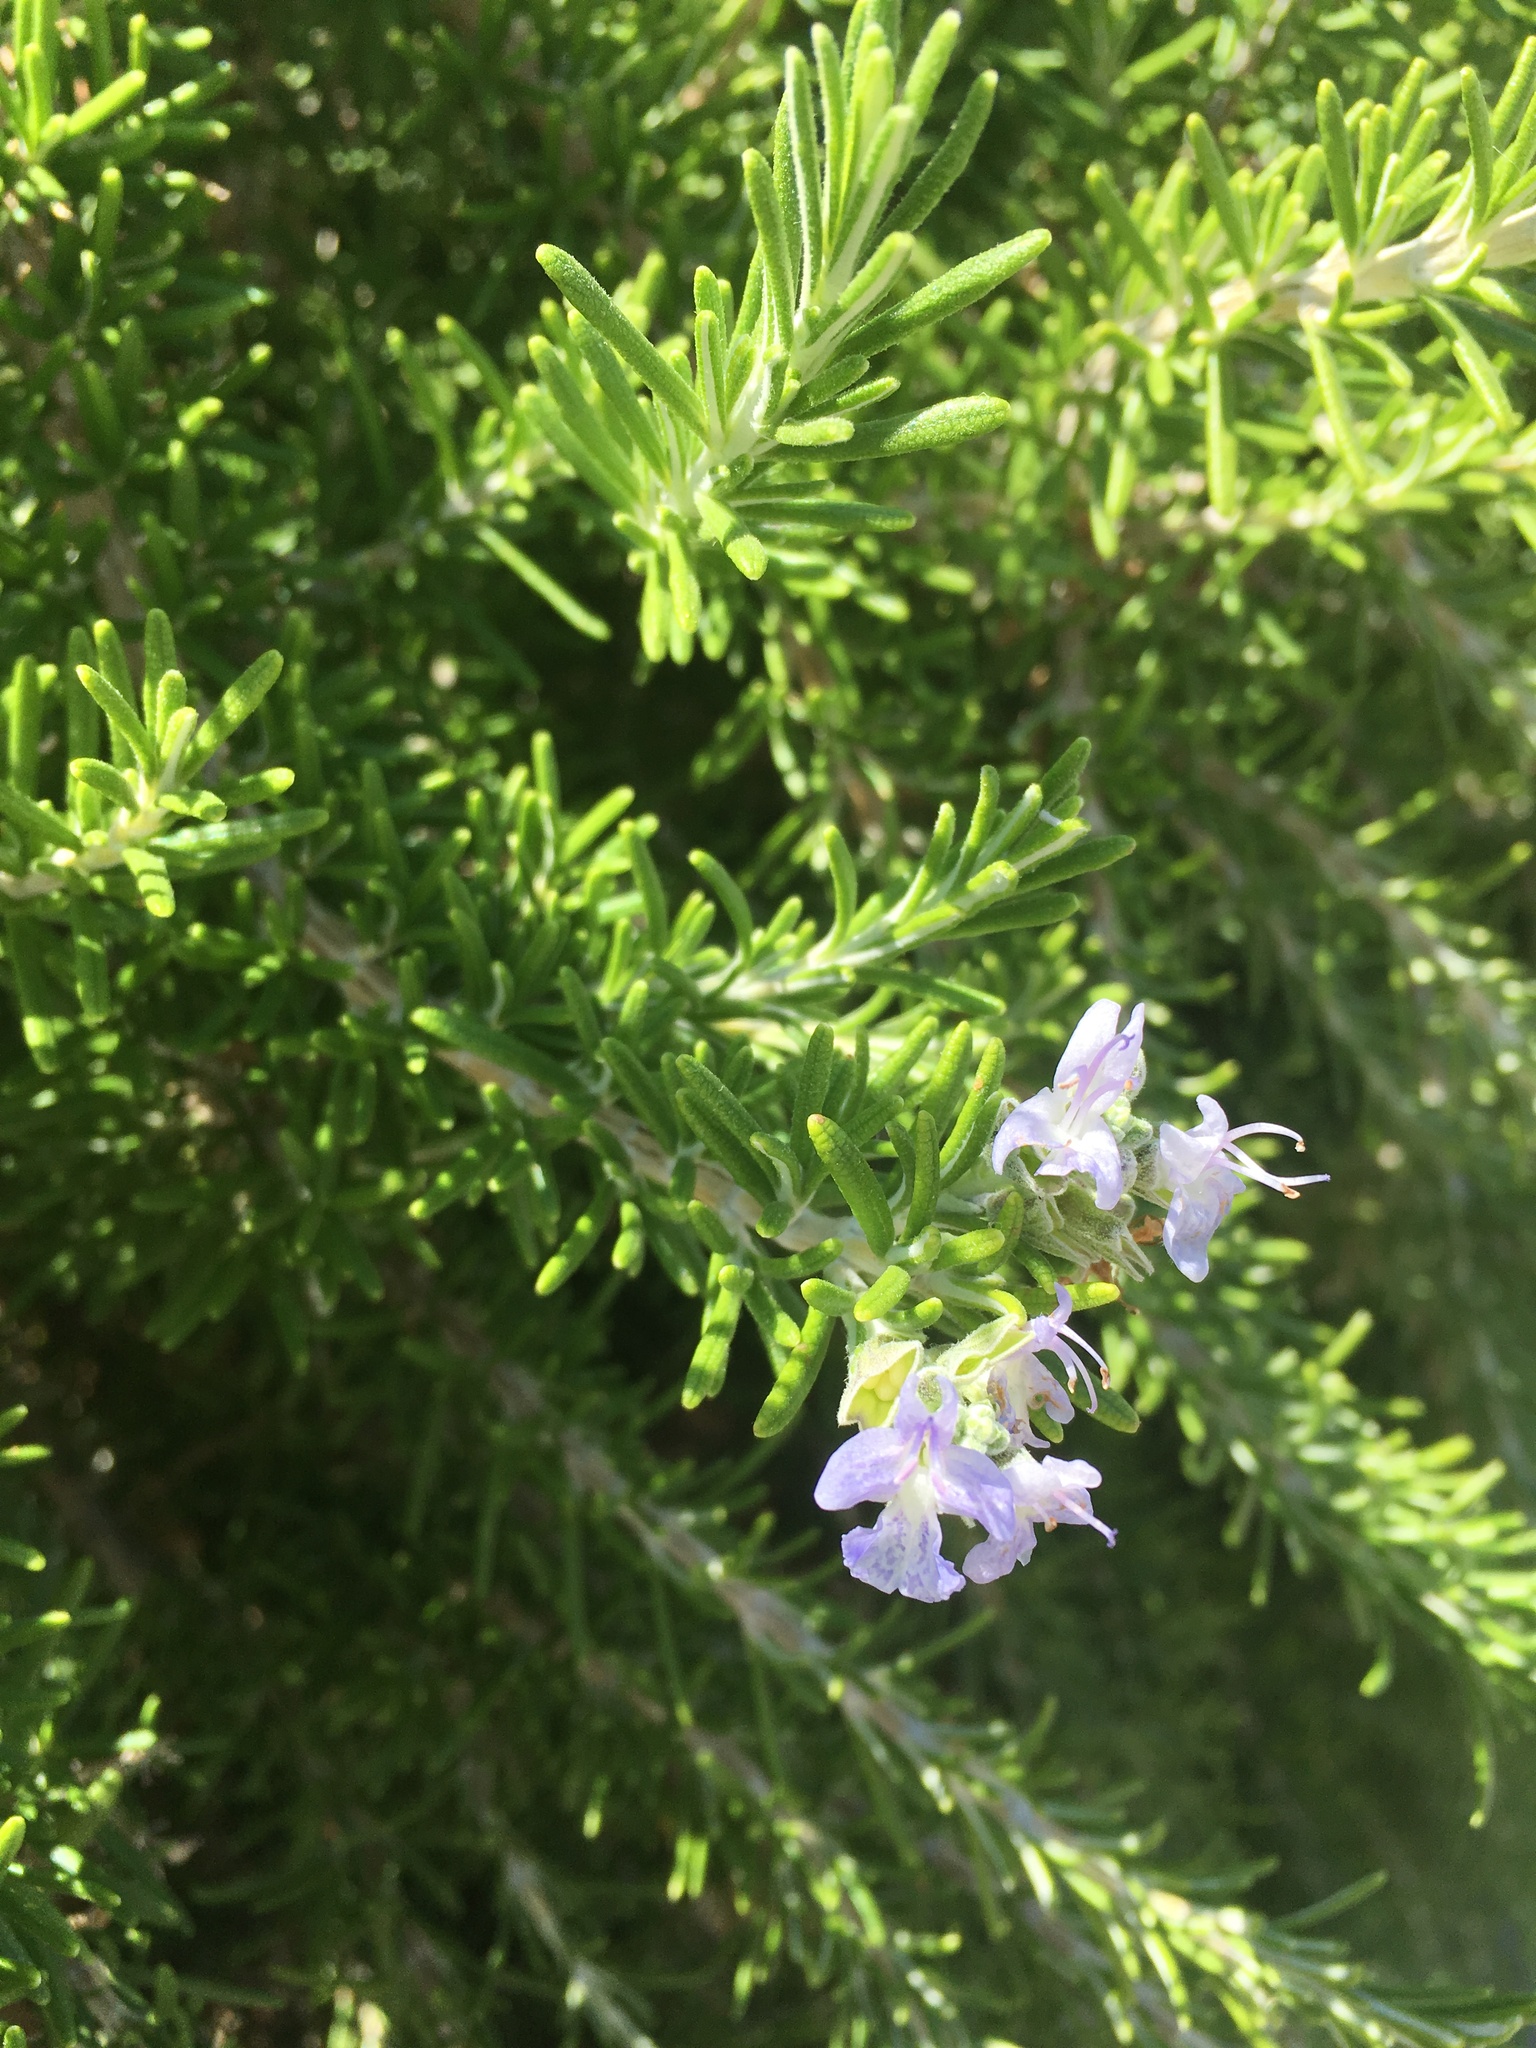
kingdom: Plantae
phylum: Tracheophyta
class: Magnoliopsida
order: Lamiales
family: Lamiaceae
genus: Salvia
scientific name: Salvia rosmarinus
